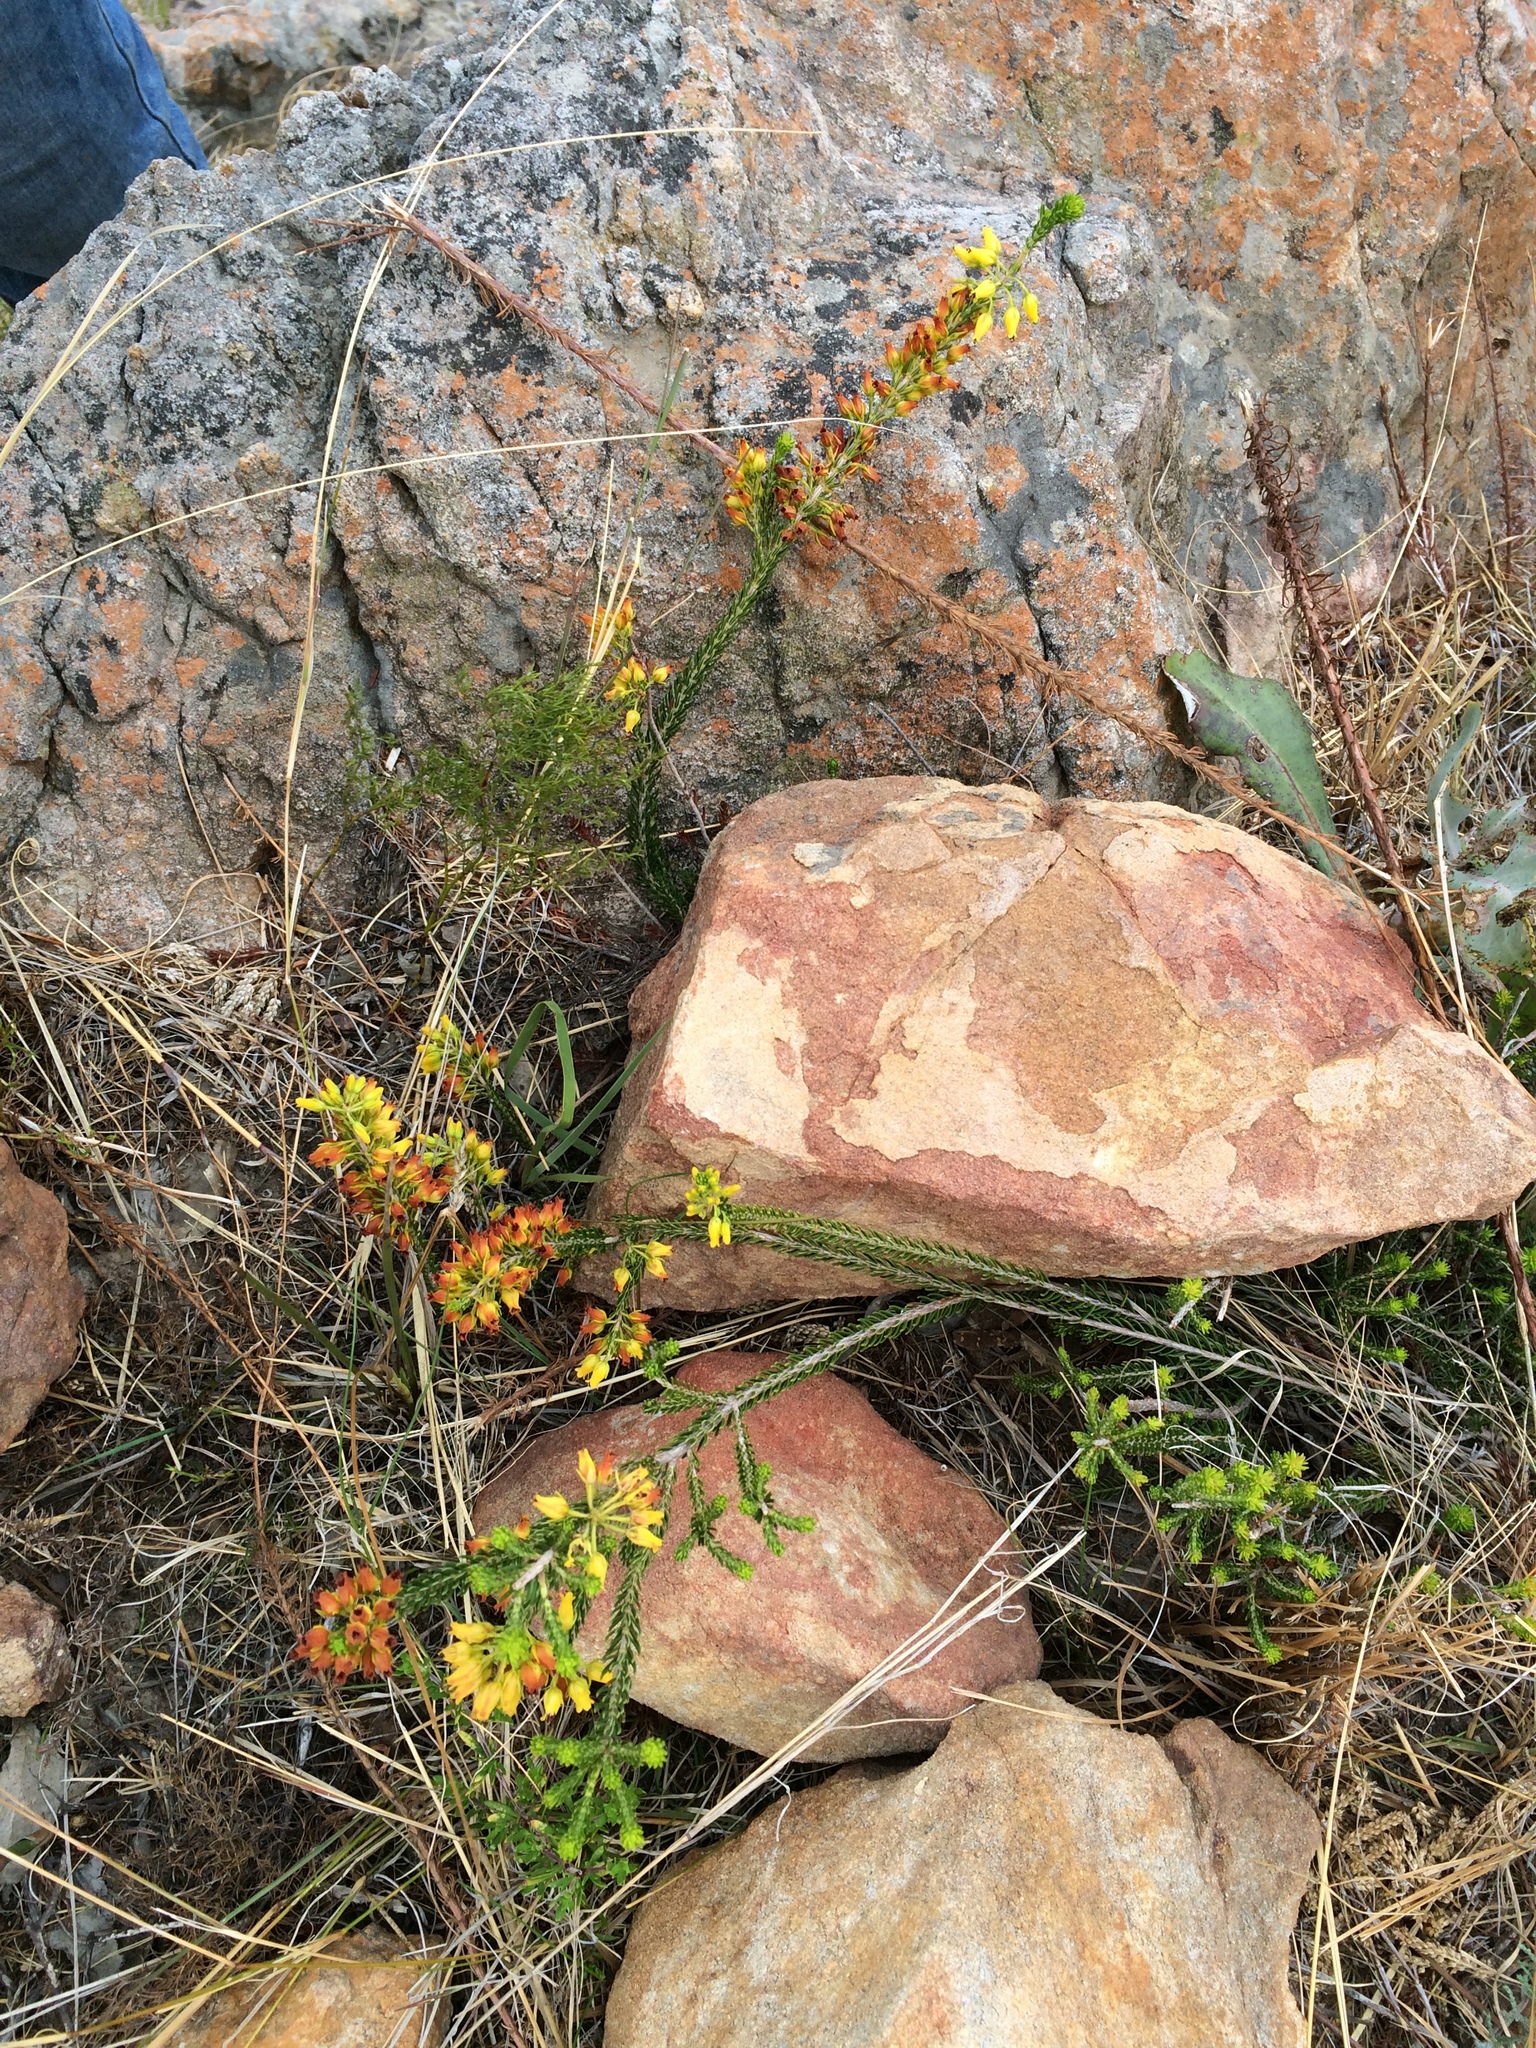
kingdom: Plantae
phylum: Tracheophyta
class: Magnoliopsida
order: Ericales
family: Ericaceae
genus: Erica
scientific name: Erica parilis
